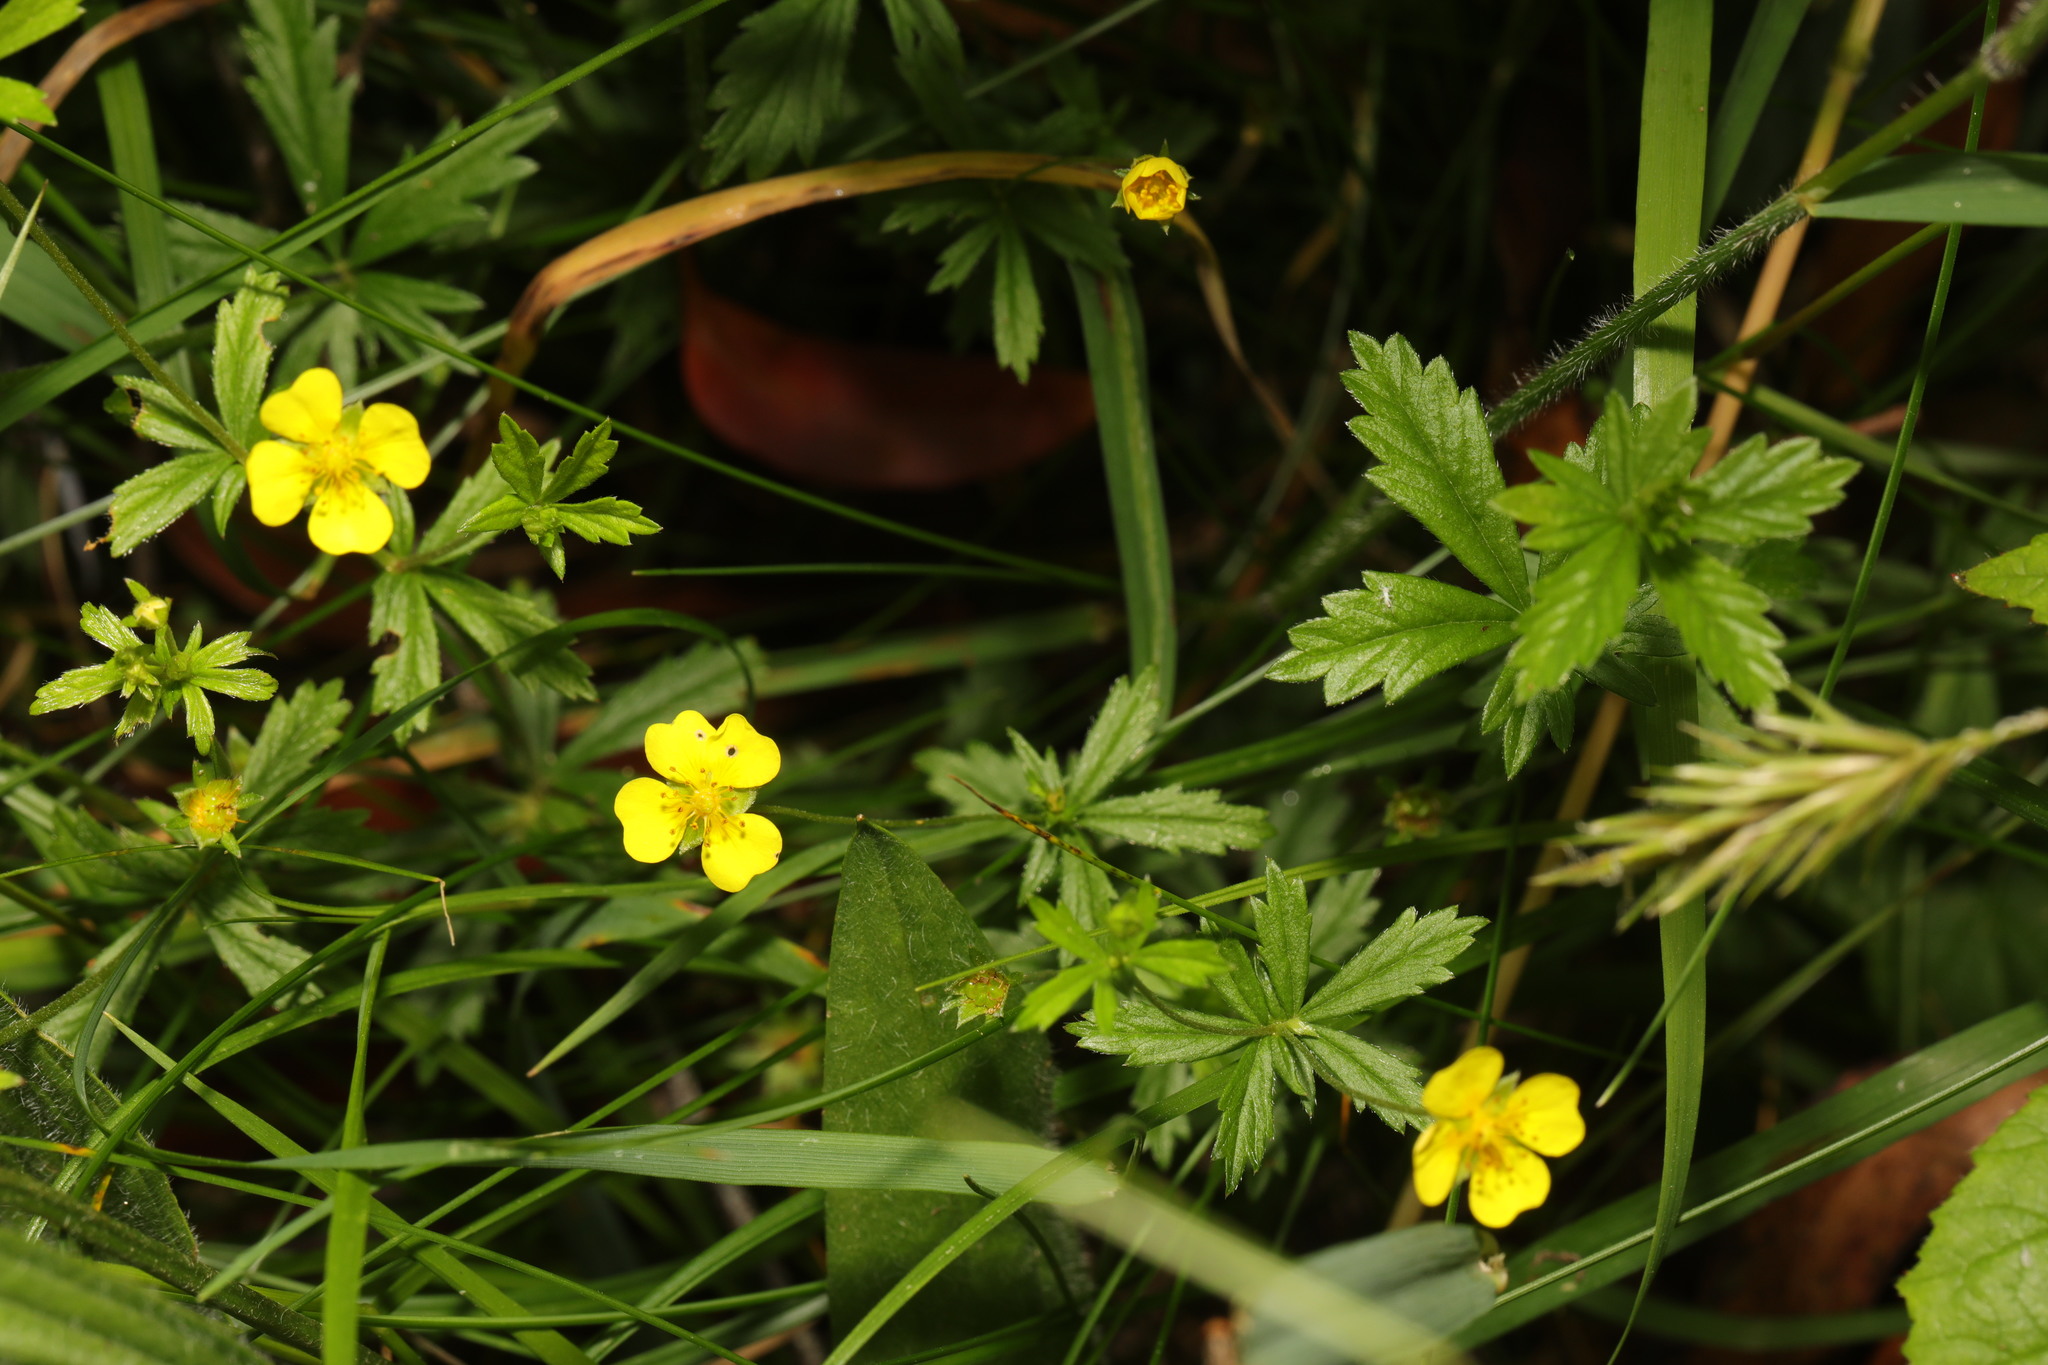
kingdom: Plantae
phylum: Tracheophyta
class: Magnoliopsida
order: Rosales
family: Rosaceae
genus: Potentilla
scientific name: Potentilla erecta
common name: Tormentil
